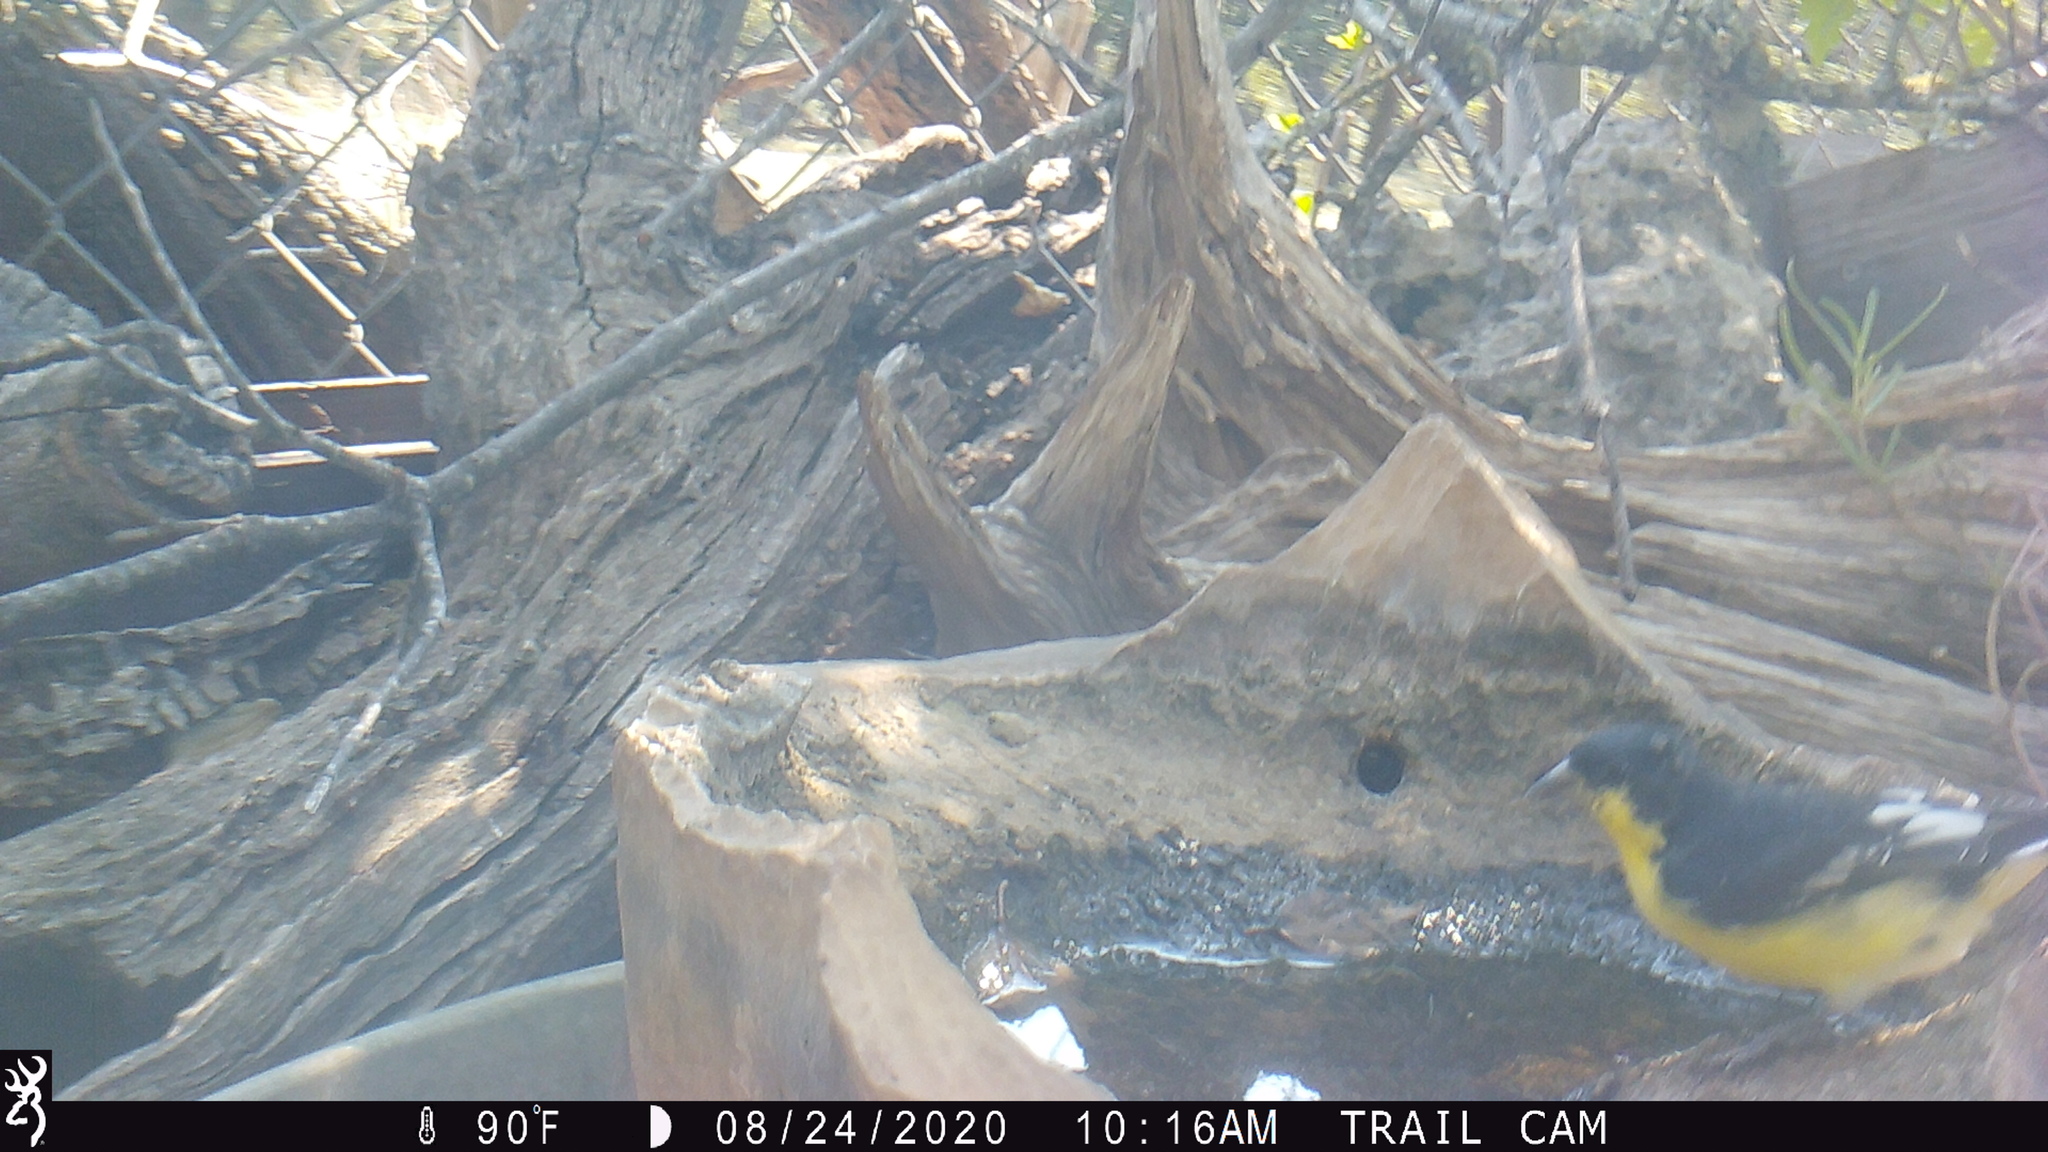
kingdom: Animalia
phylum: Chordata
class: Aves
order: Passeriformes
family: Fringillidae
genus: Spinus
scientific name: Spinus psaltria
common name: Lesser goldfinch
